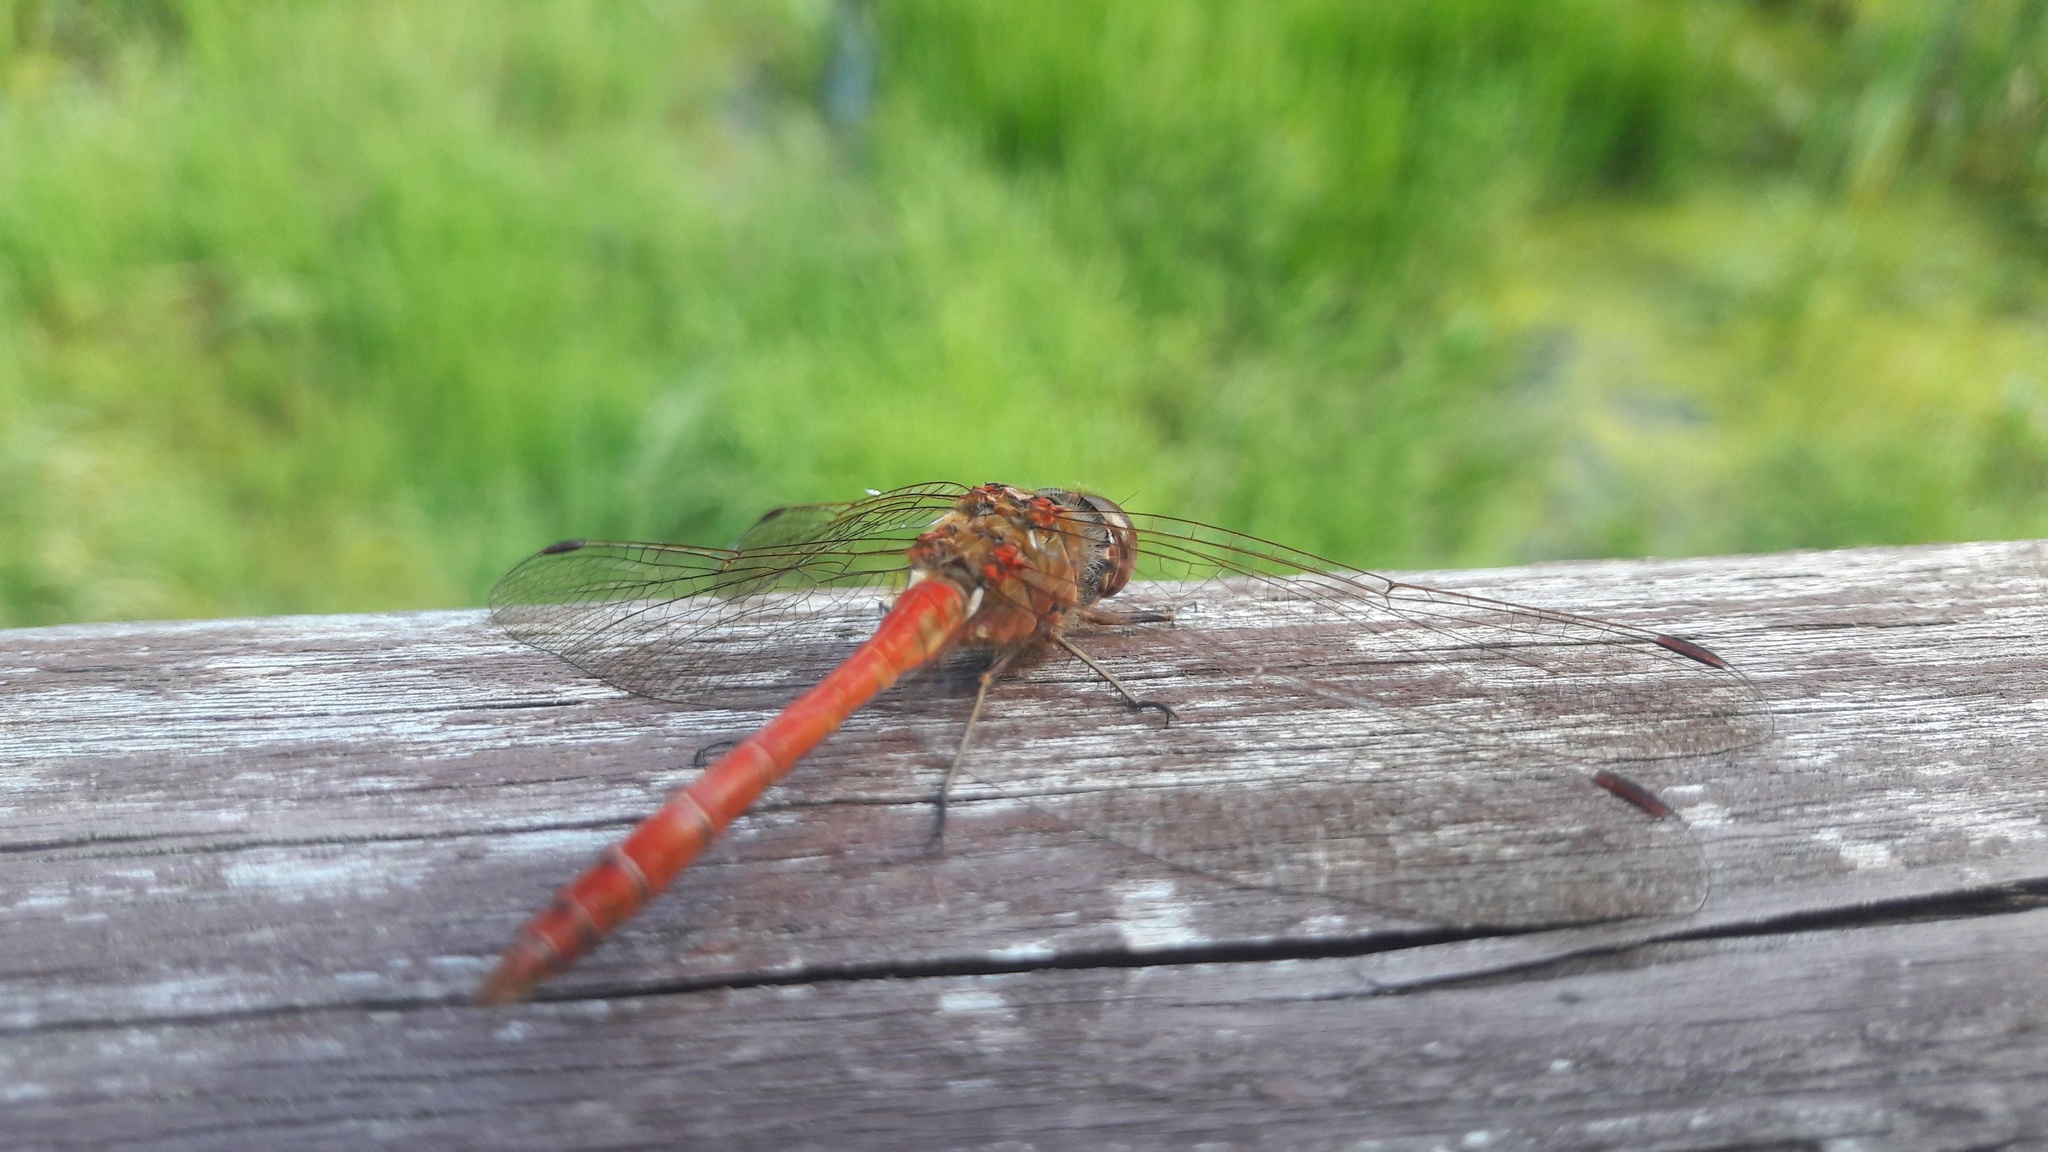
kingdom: Animalia
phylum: Arthropoda
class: Insecta
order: Odonata
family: Libellulidae
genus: Sympetrum
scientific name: Sympetrum vulgatum
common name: Vagrant darter
